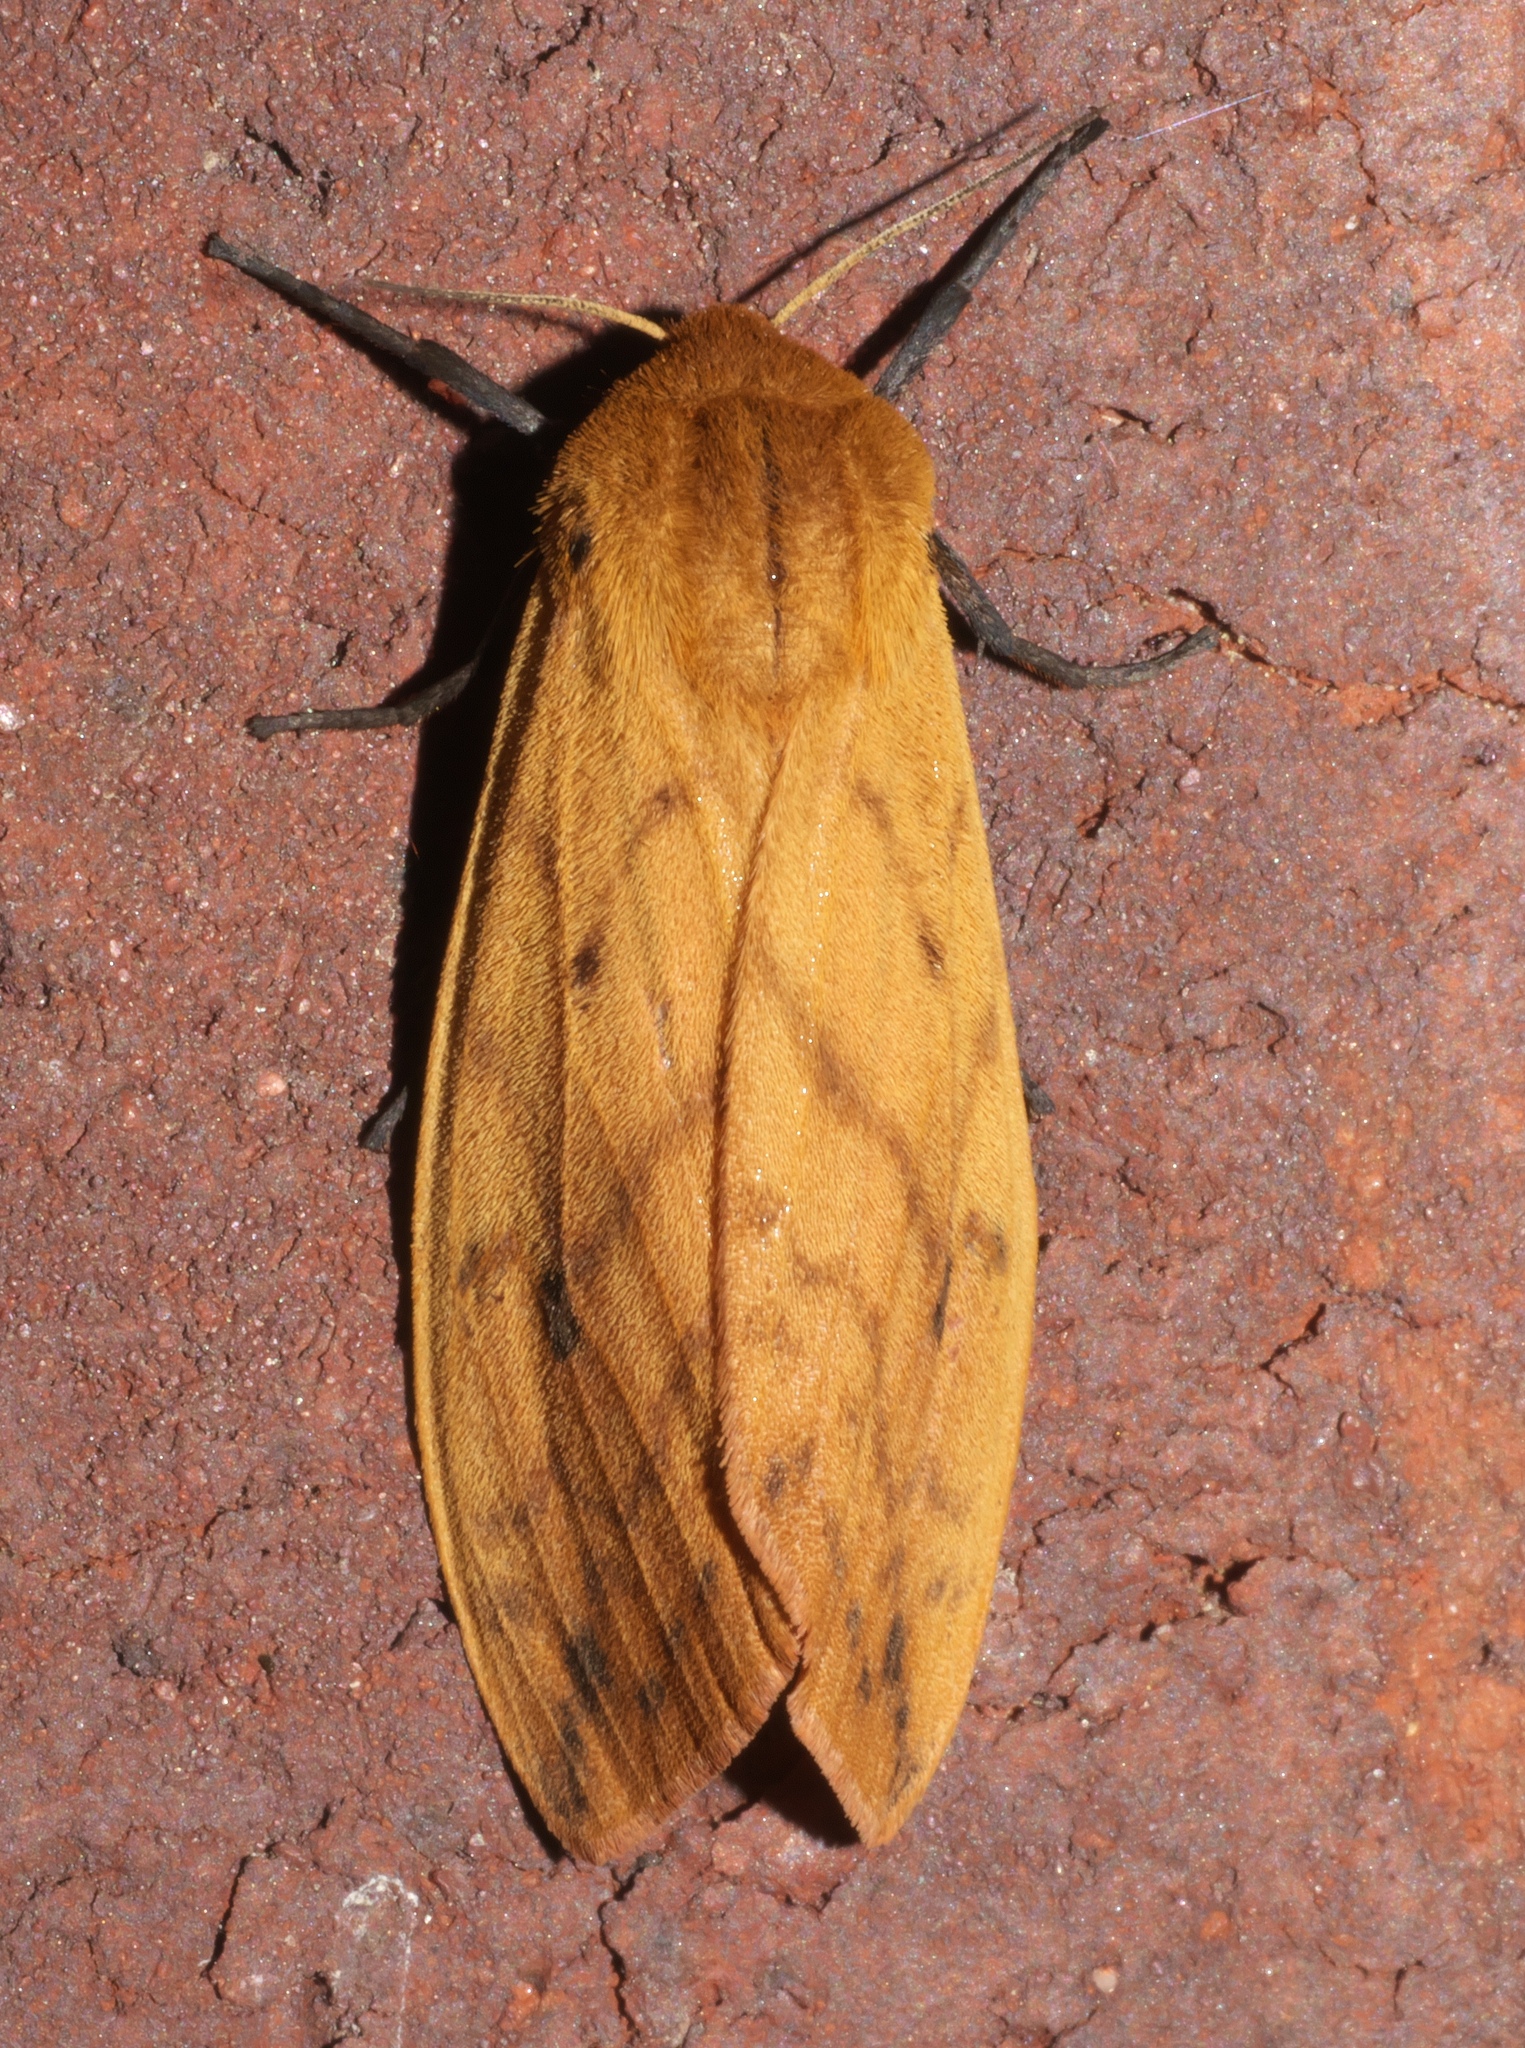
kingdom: Animalia
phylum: Arthropoda
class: Insecta
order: Lepidoptera
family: Erebidae
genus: Pyrrharctia
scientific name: Pyrrharctia isabella
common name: Isabella tiger moth
